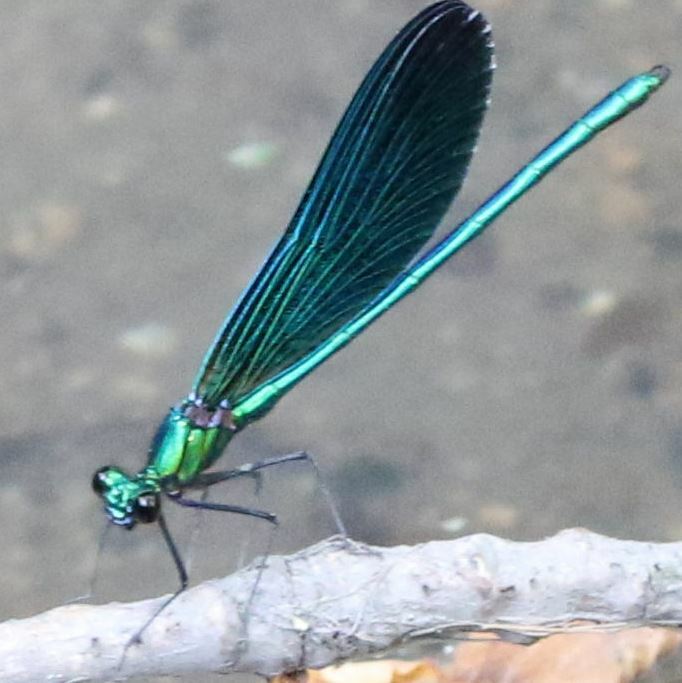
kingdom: Animalia
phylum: Arthropoda
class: Insecta
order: Odonata
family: Calopterygidae
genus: Calopteryx
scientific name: Calopteryx virgo
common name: Beautiful demoiselle
